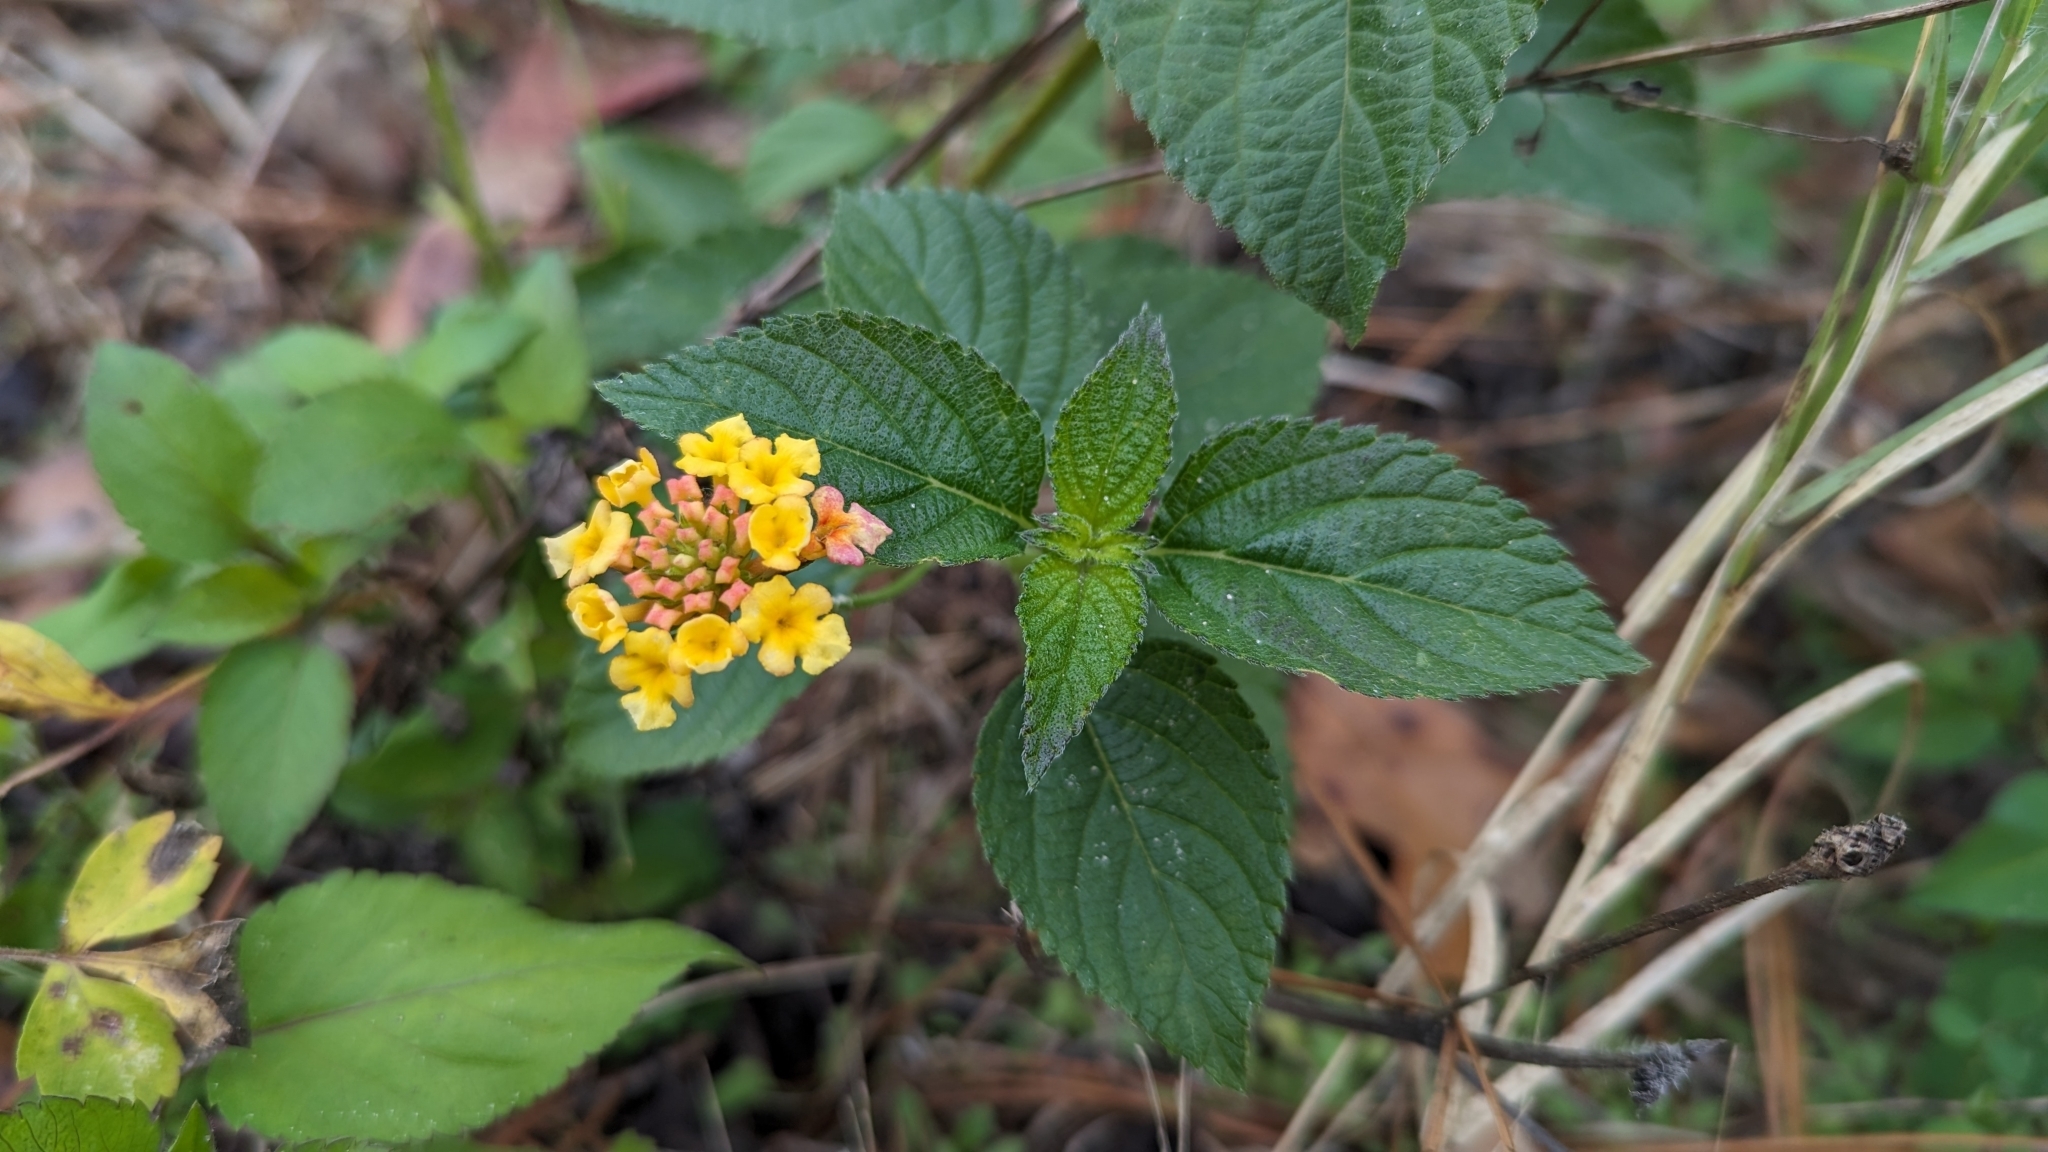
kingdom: Plantae
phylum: Tracheophyta
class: Magnoliopsida
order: Lamiales
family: Verbenaceae
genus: Lantana
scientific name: Lantana strigocamara
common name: Lantana
